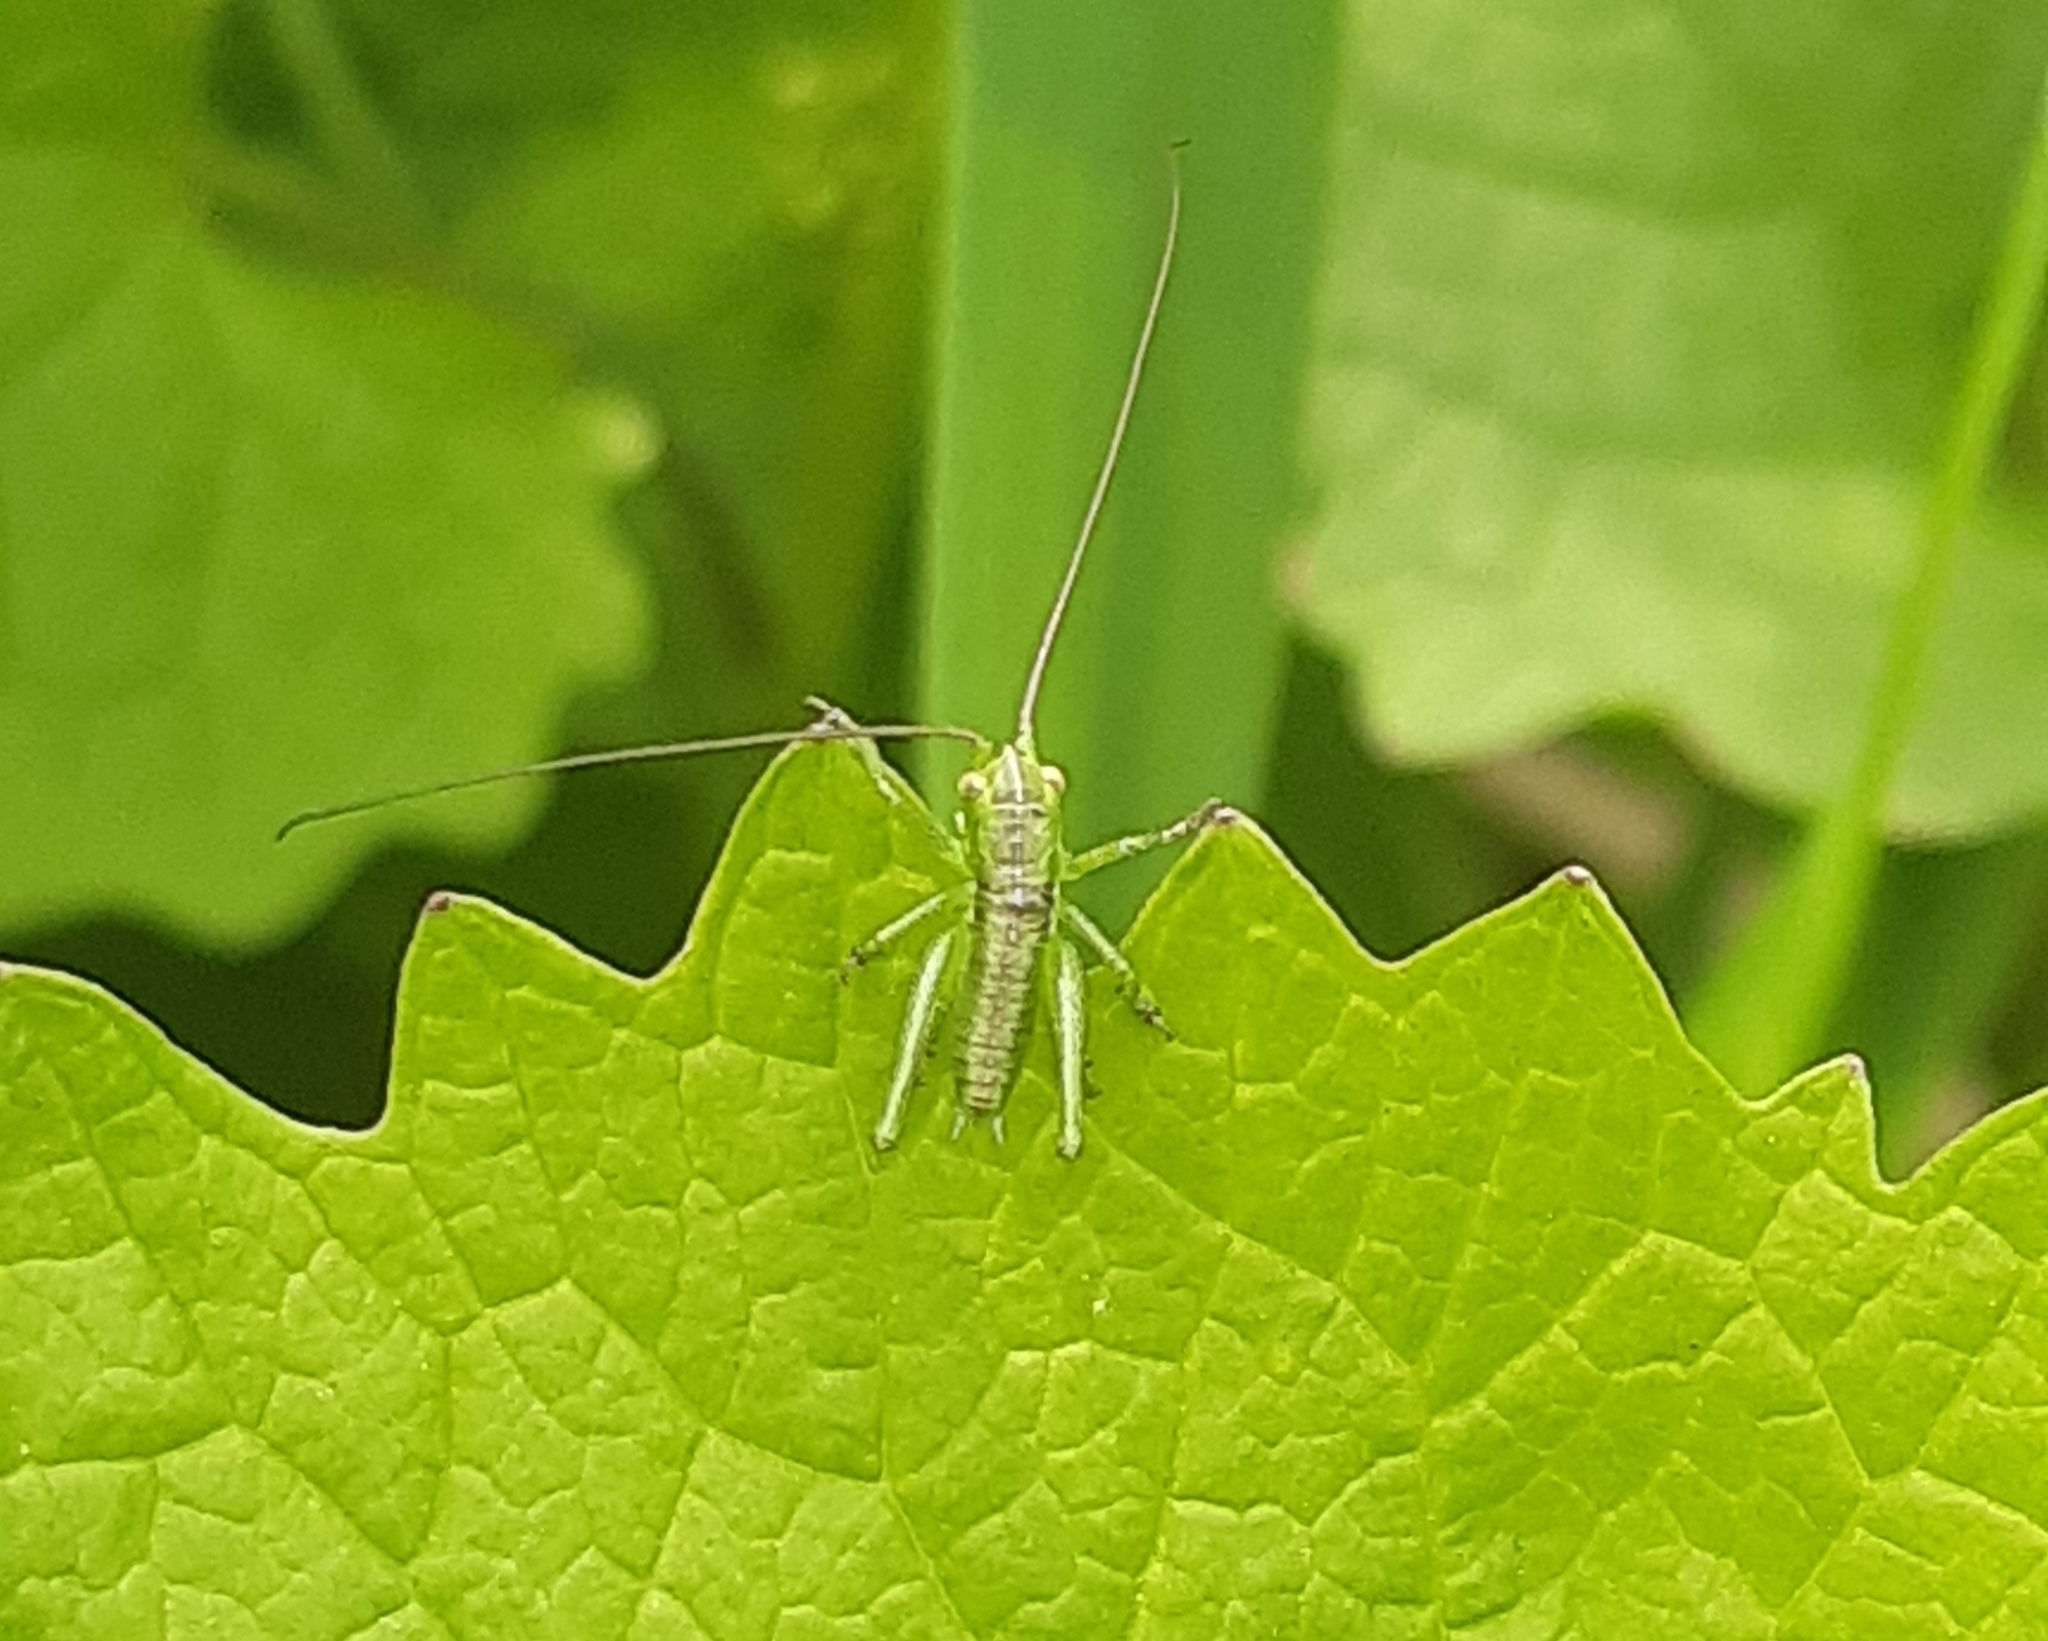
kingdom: Animalia
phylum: Arthropoda
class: Insecta
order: Orthoptera
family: Tettigoniidae
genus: Tettigonia
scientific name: Tettigonia viridissima
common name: Great green bush-cricket
